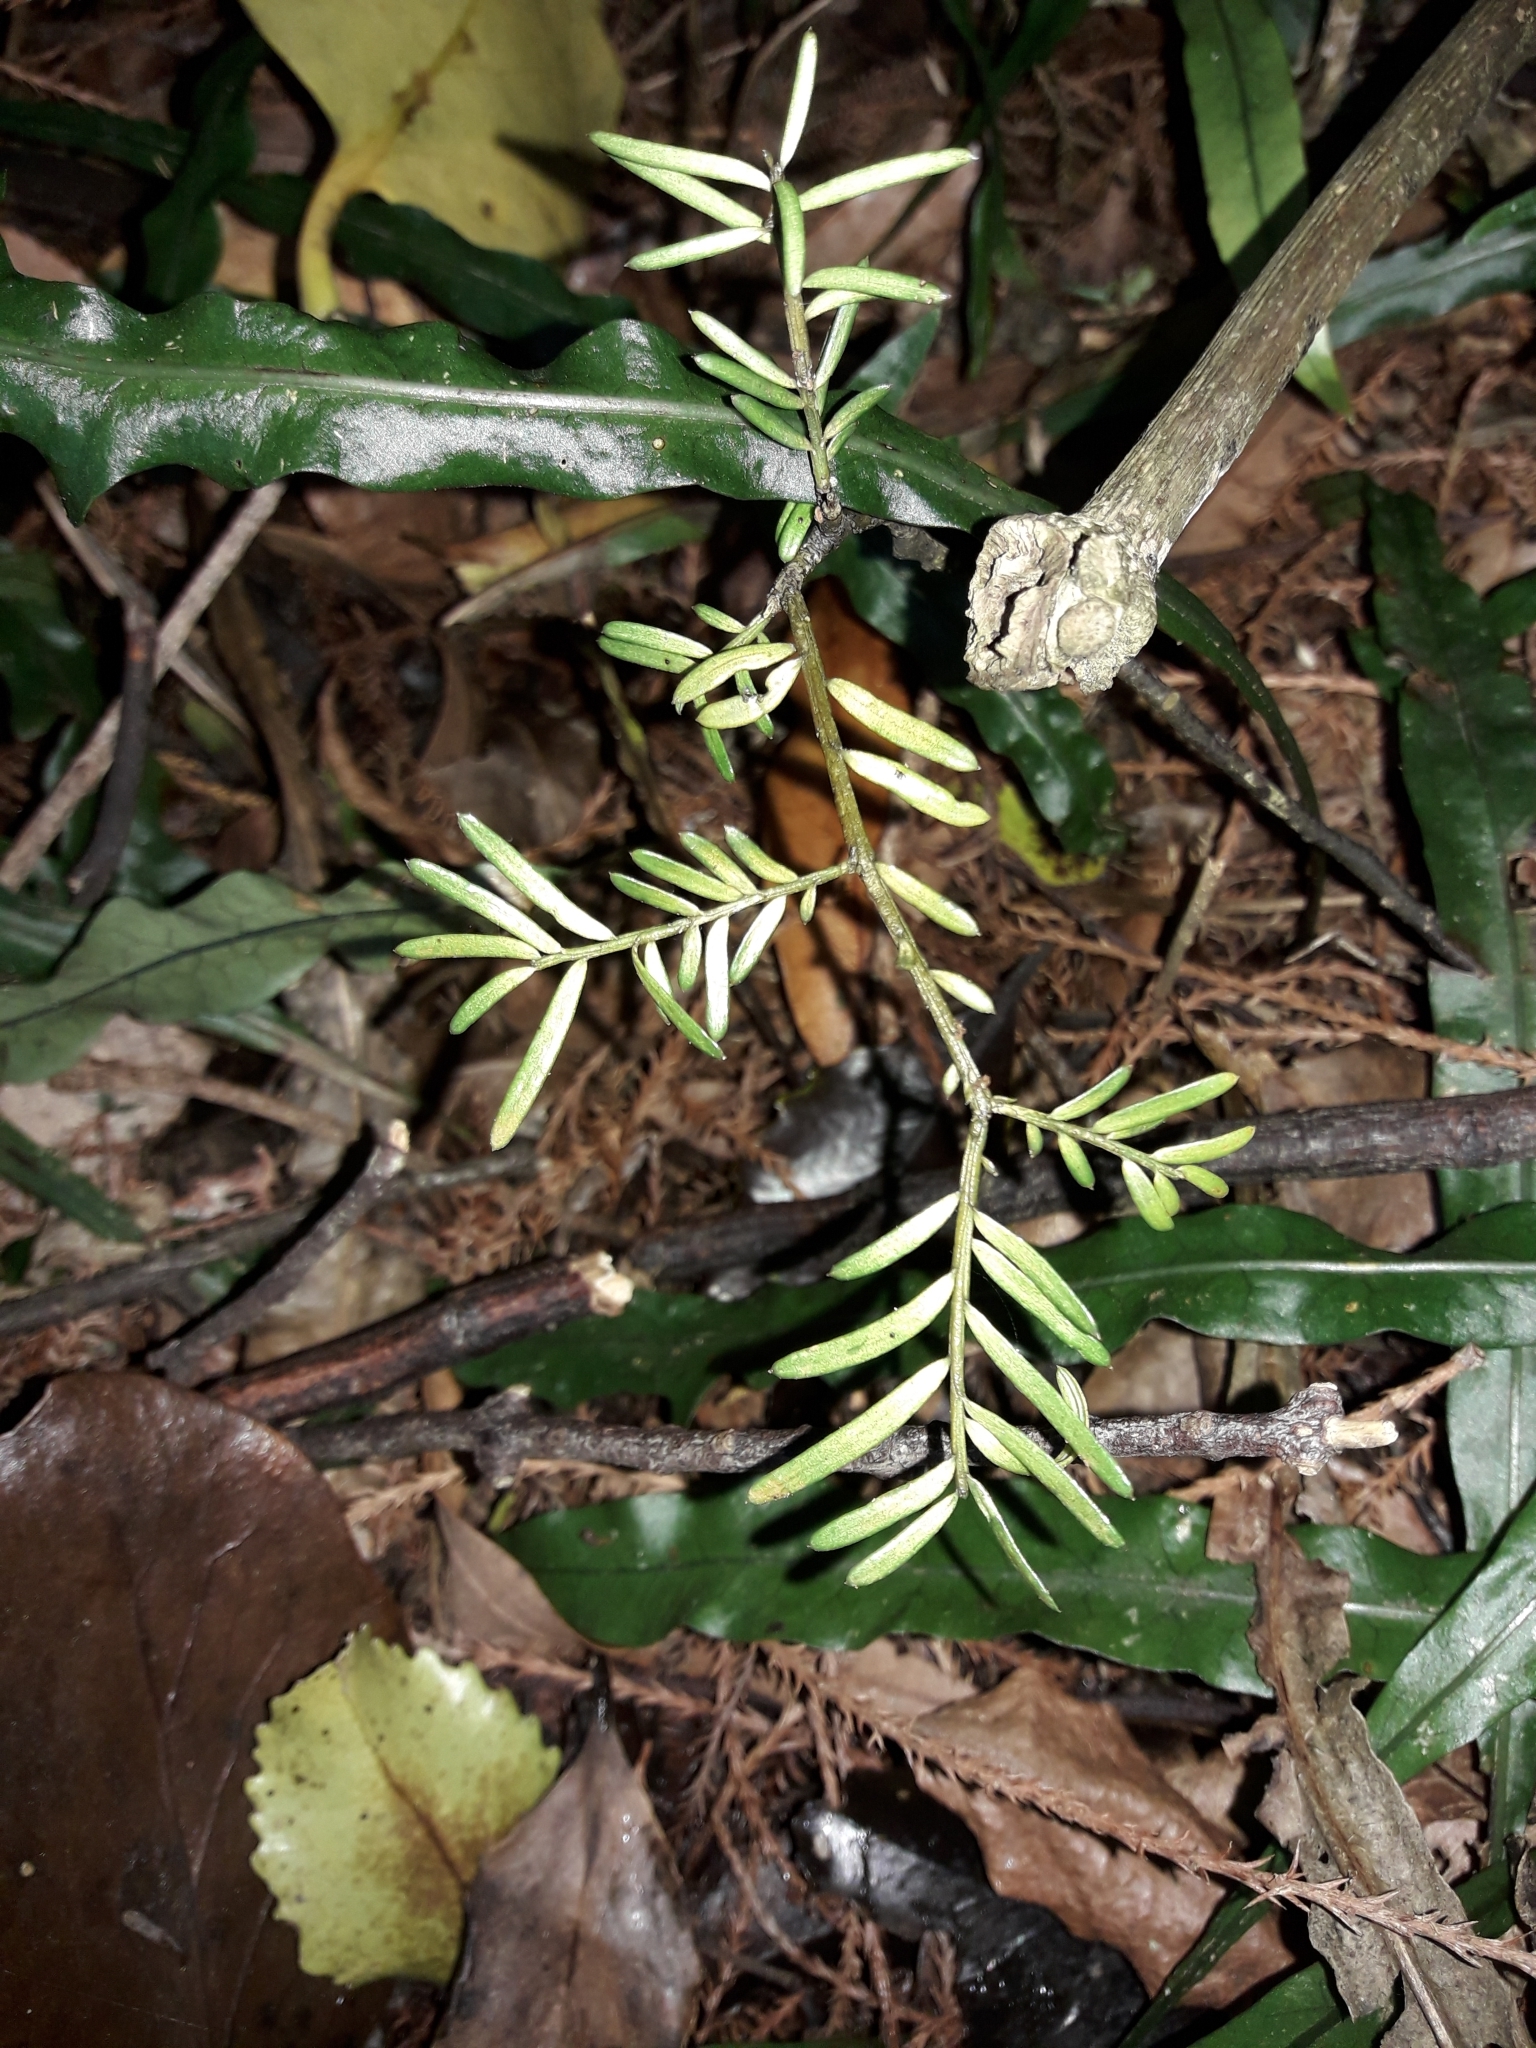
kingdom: Plantae
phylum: Tracheophyta
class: Pinopsida
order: Pinales
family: Podocarpaceae
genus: Prumnopitys
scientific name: Prumnopitys taxifolia
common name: Matai
